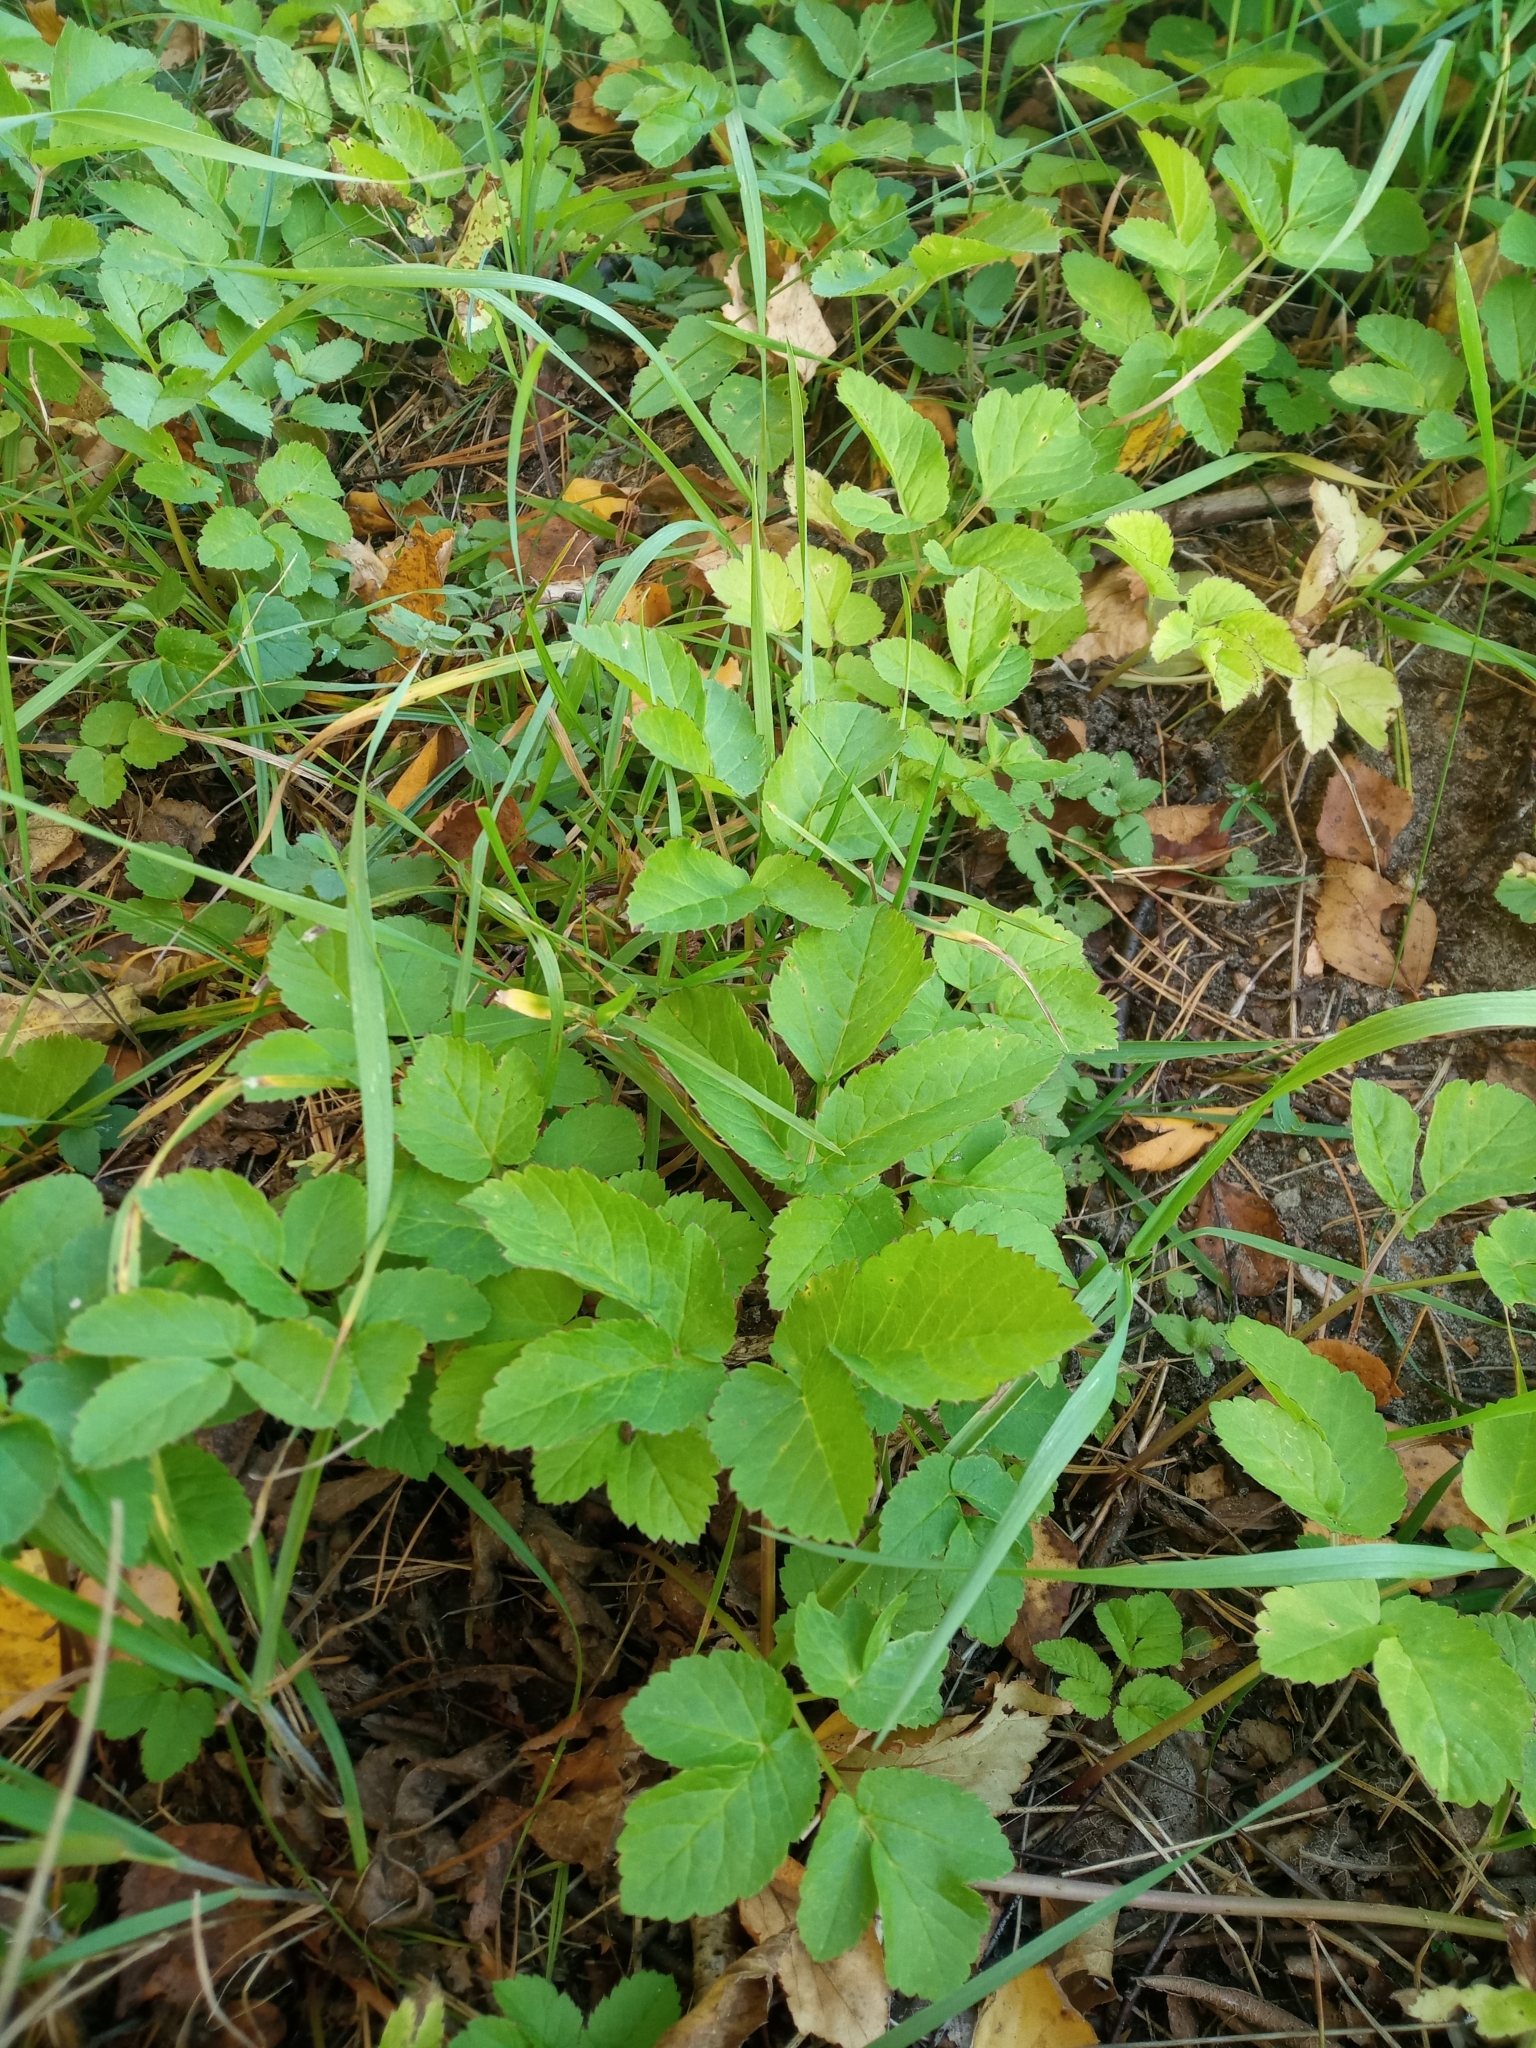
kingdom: Plantae
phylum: Tracheophyta
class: Magnoliopsida
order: Apiales
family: Apiaceae
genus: Aegopodium
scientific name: Aegopodium podagraria
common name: Ground-elder
